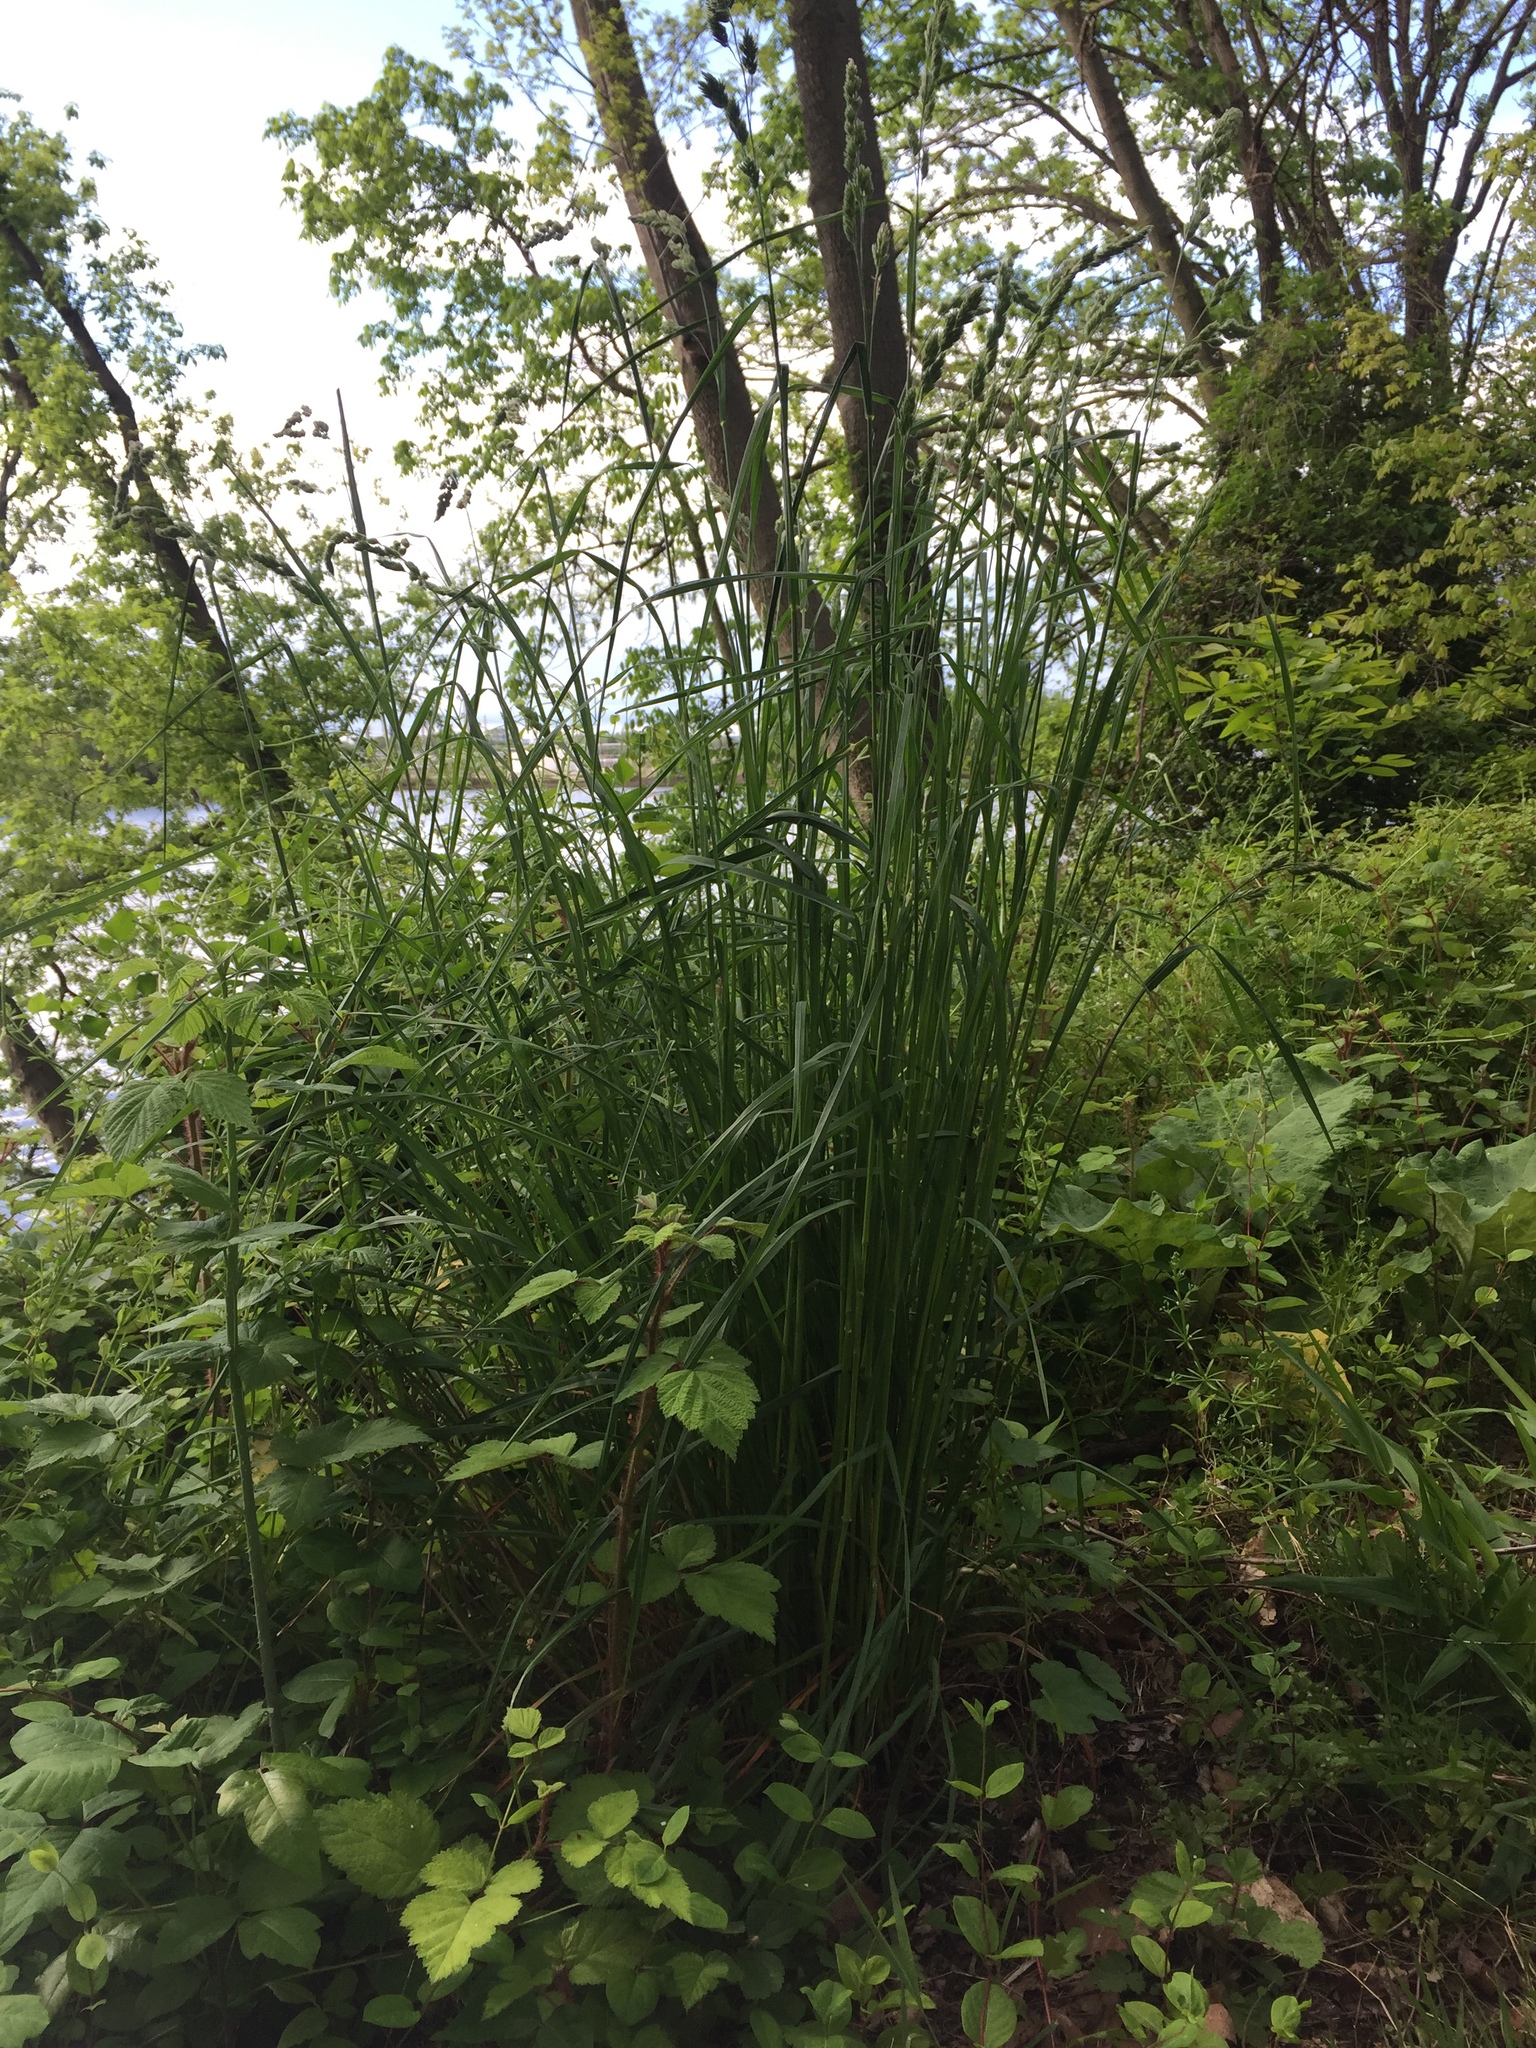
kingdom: Plantae
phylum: Tracheophyta
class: Liliopsida
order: Poales
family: Poaceae
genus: Dactylis
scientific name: Dactylis glomerata
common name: Orchardgrass
